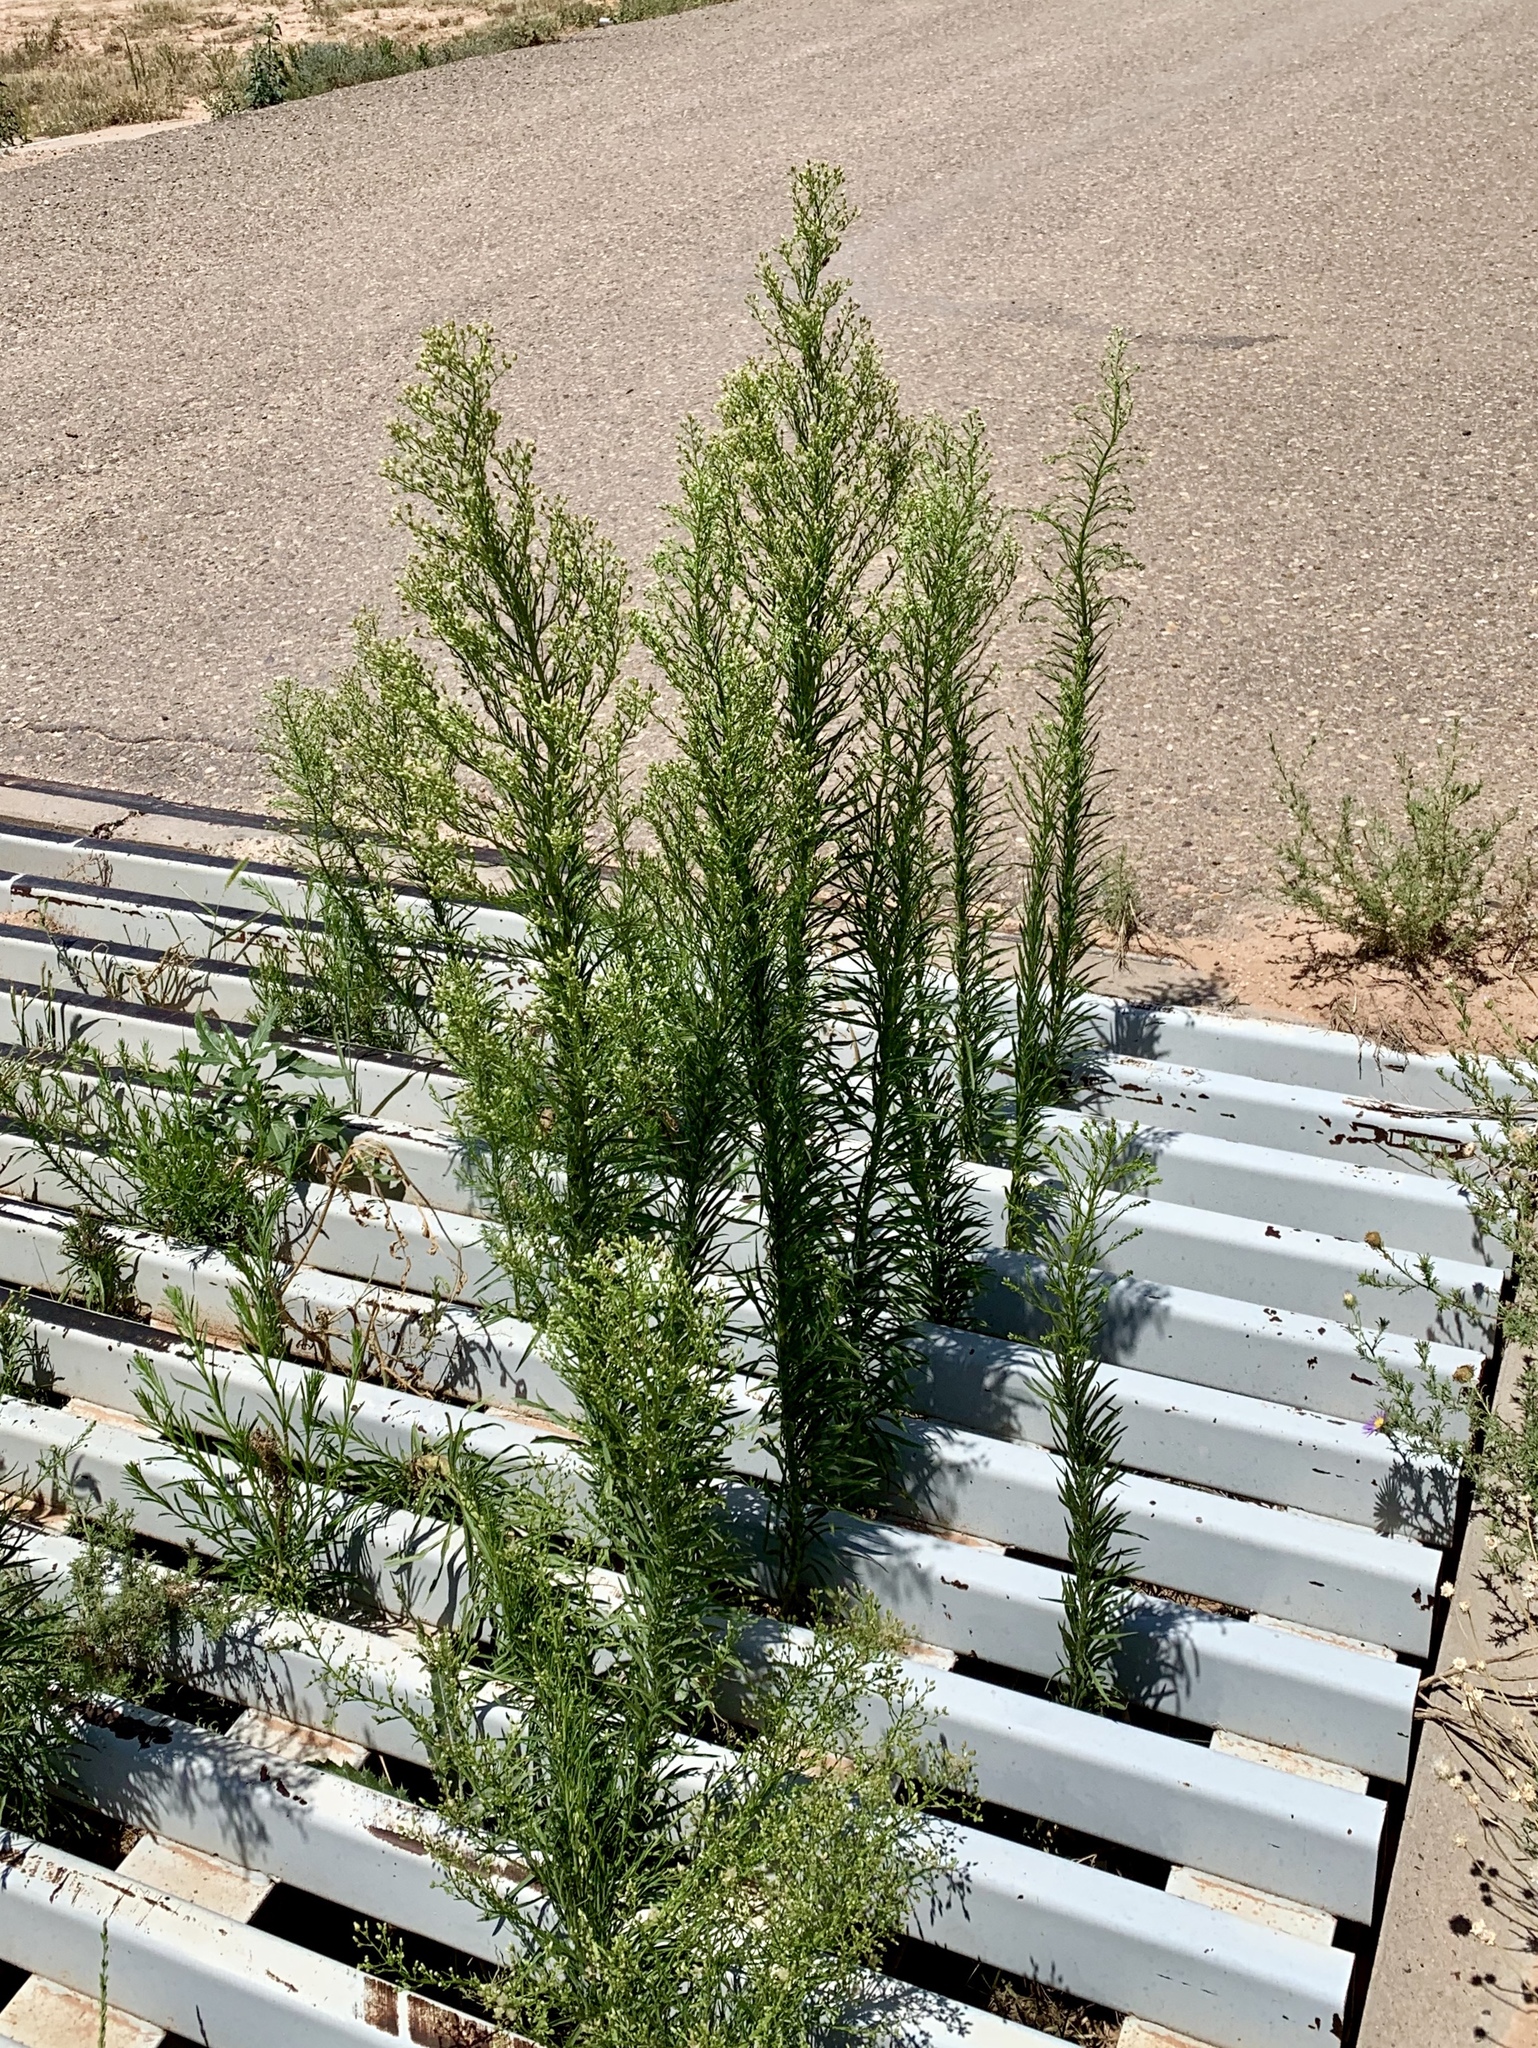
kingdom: Plantae
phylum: Tracheophyta
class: Magnoliopsida
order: Asterales
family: Asteraceae
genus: Erigeron
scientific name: Erigeron canadensis
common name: Canadian fleabane
